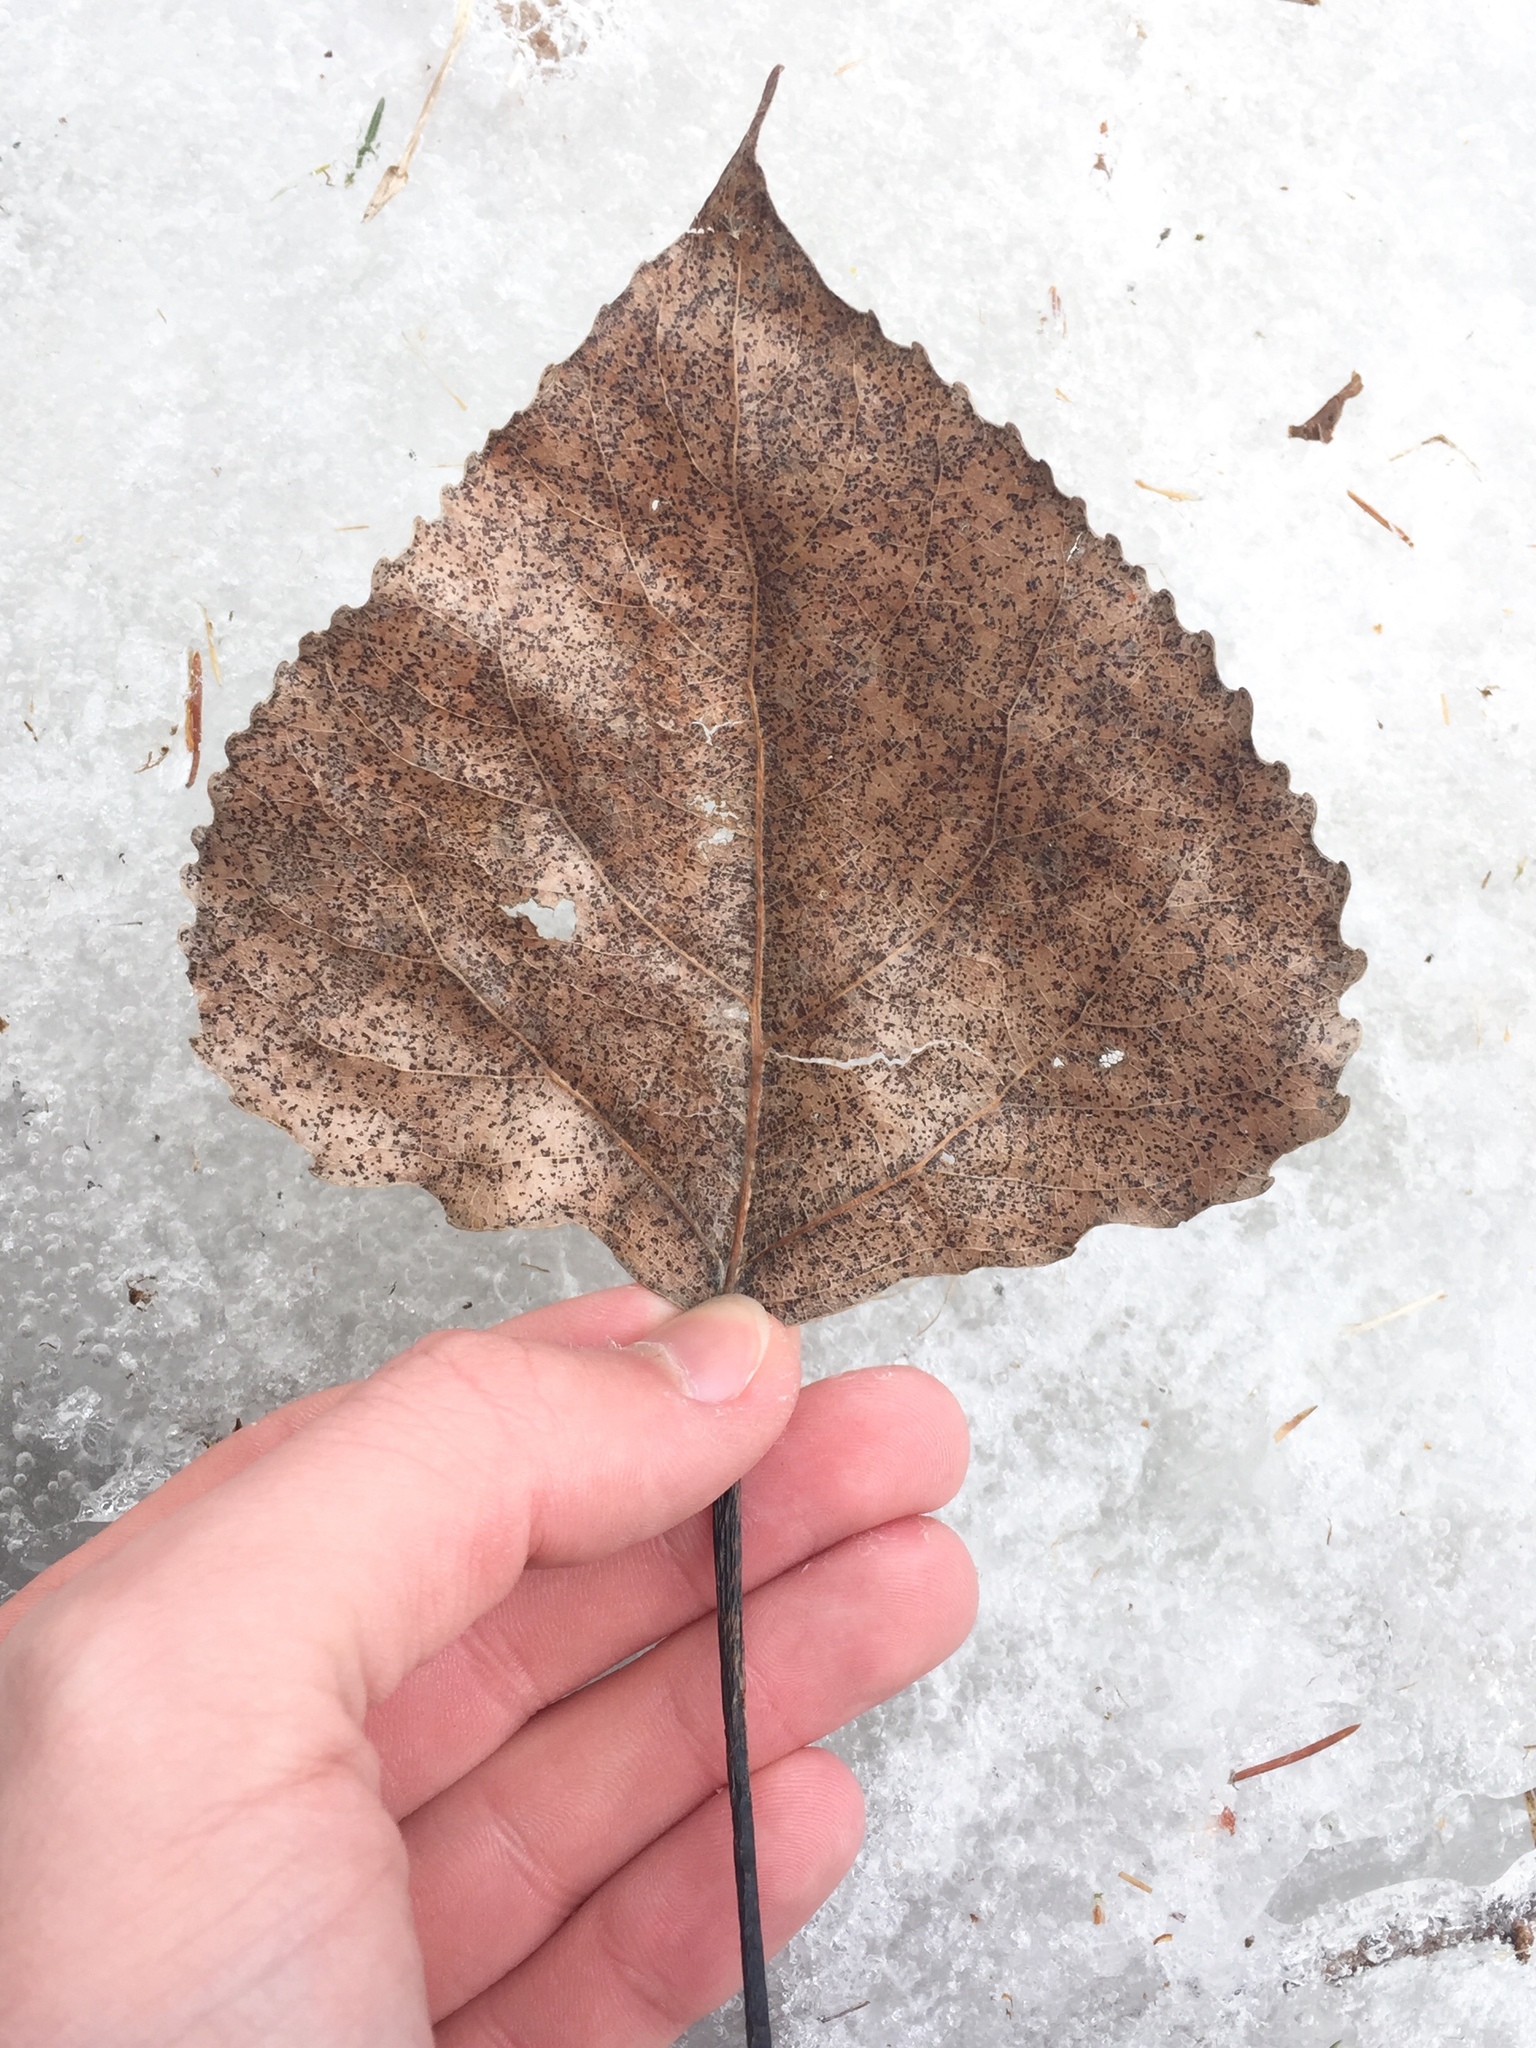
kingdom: Plantae
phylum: Tracheophyta
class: Magnoliopsida
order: Malpighiales
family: Salicaceae
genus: Populus
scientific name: Populus deltoides
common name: Eastern cottonwood
